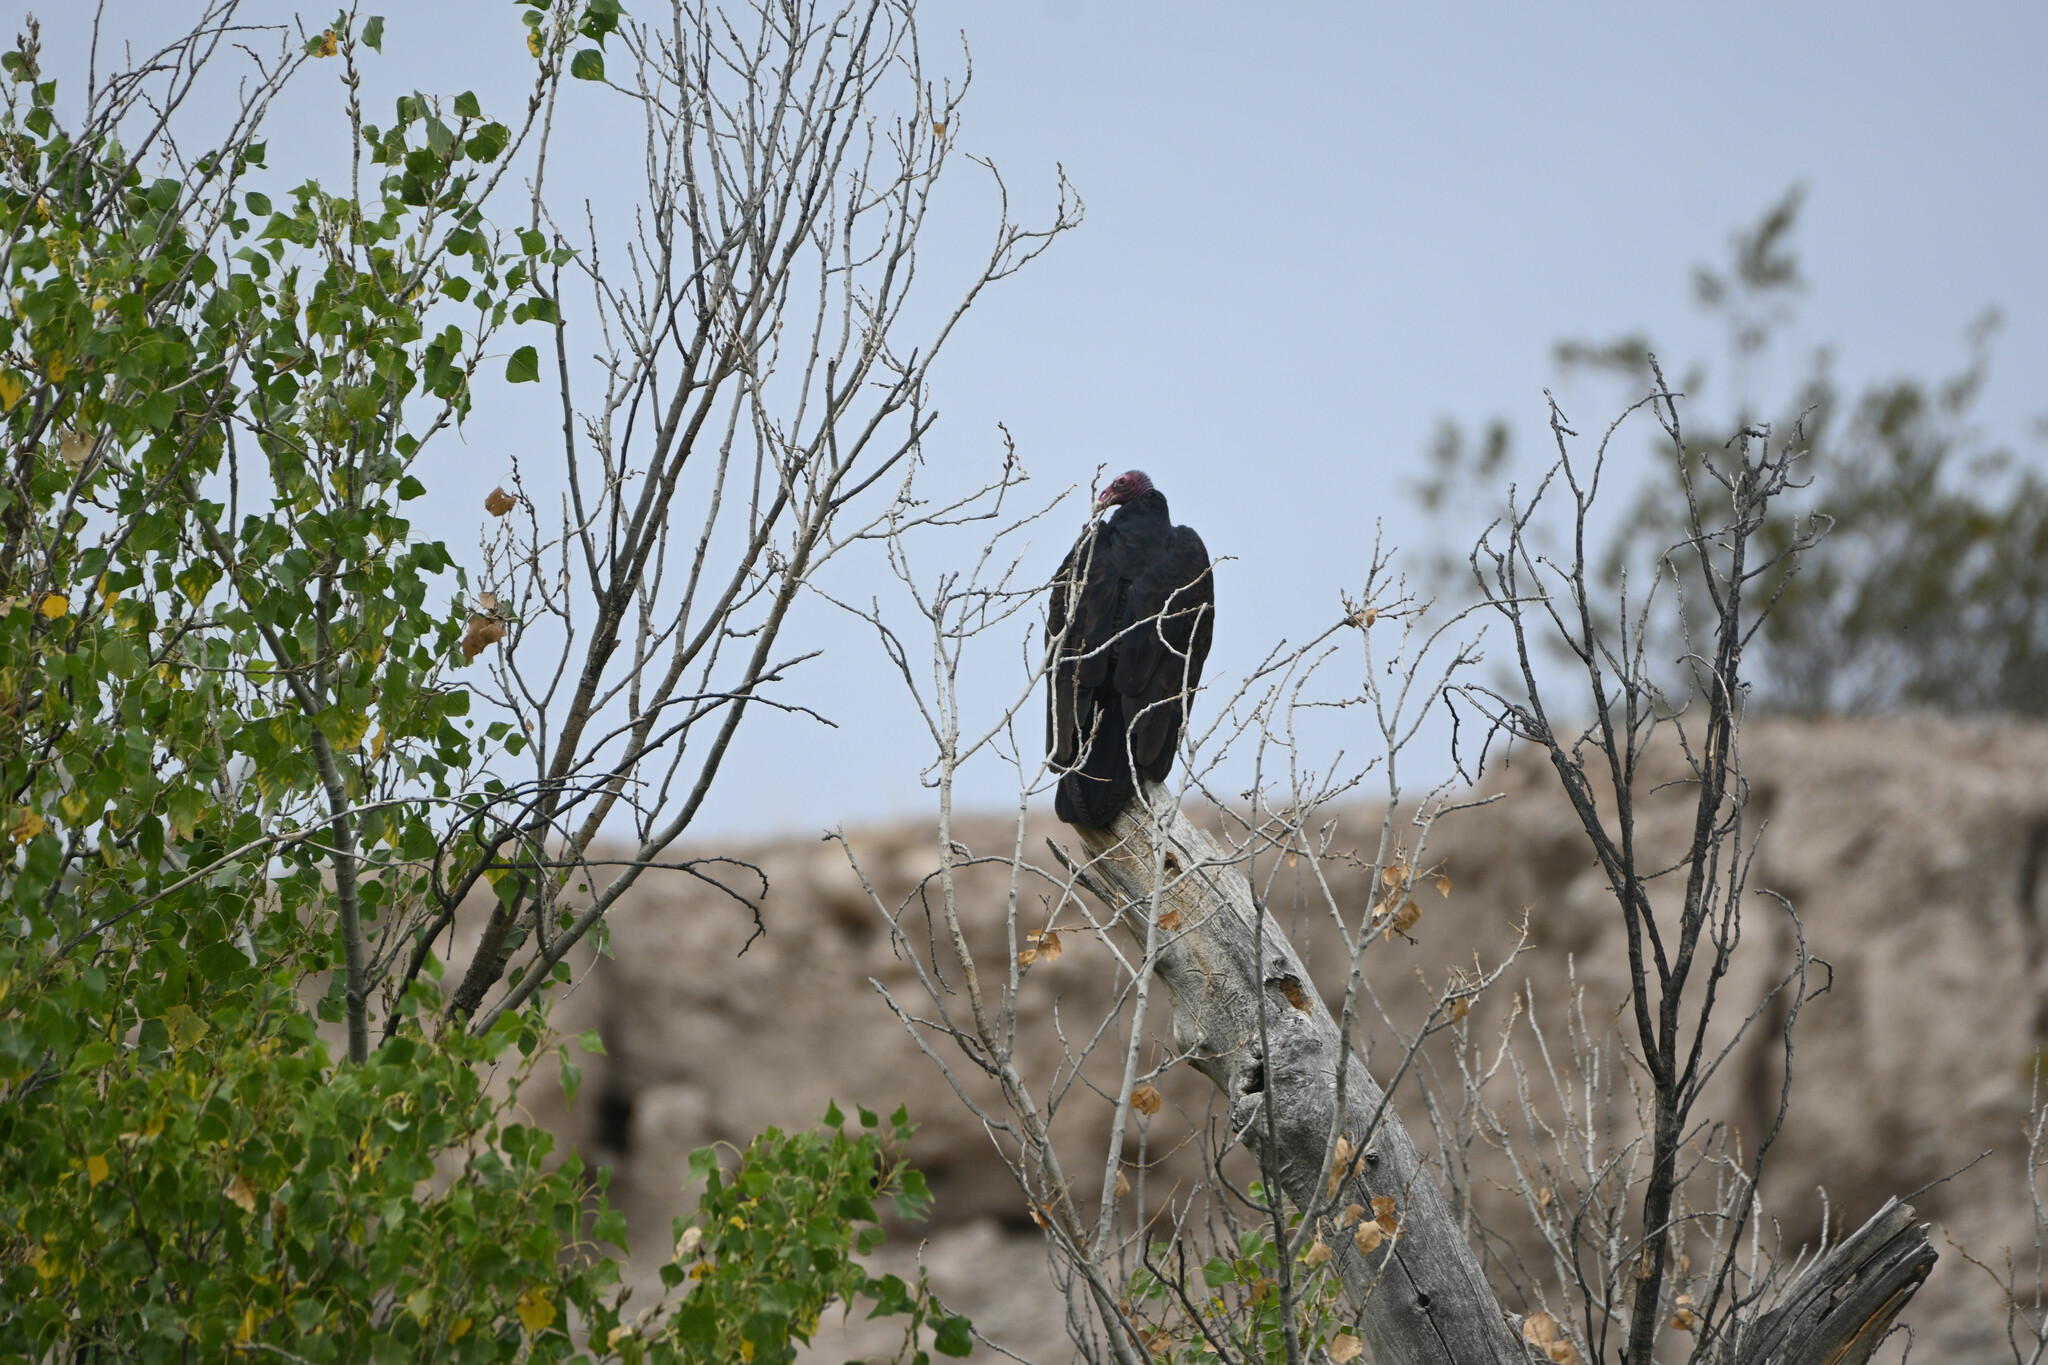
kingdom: Animalia
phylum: Chordata
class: Aves
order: Accipitriformes
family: Cathartidae
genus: Cathartes
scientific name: Cathartes aura
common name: Turkey vulture
